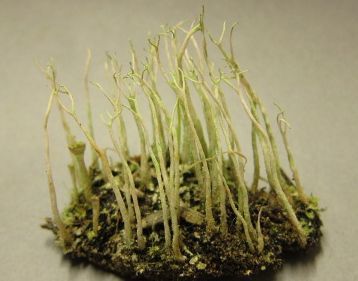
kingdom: Fungi
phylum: Ascomycota
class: Lecanoromycetes
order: Lecanorales
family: Cladoniaceae
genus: Cladonia
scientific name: Cladonia subulata
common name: Antlered powderhorn
